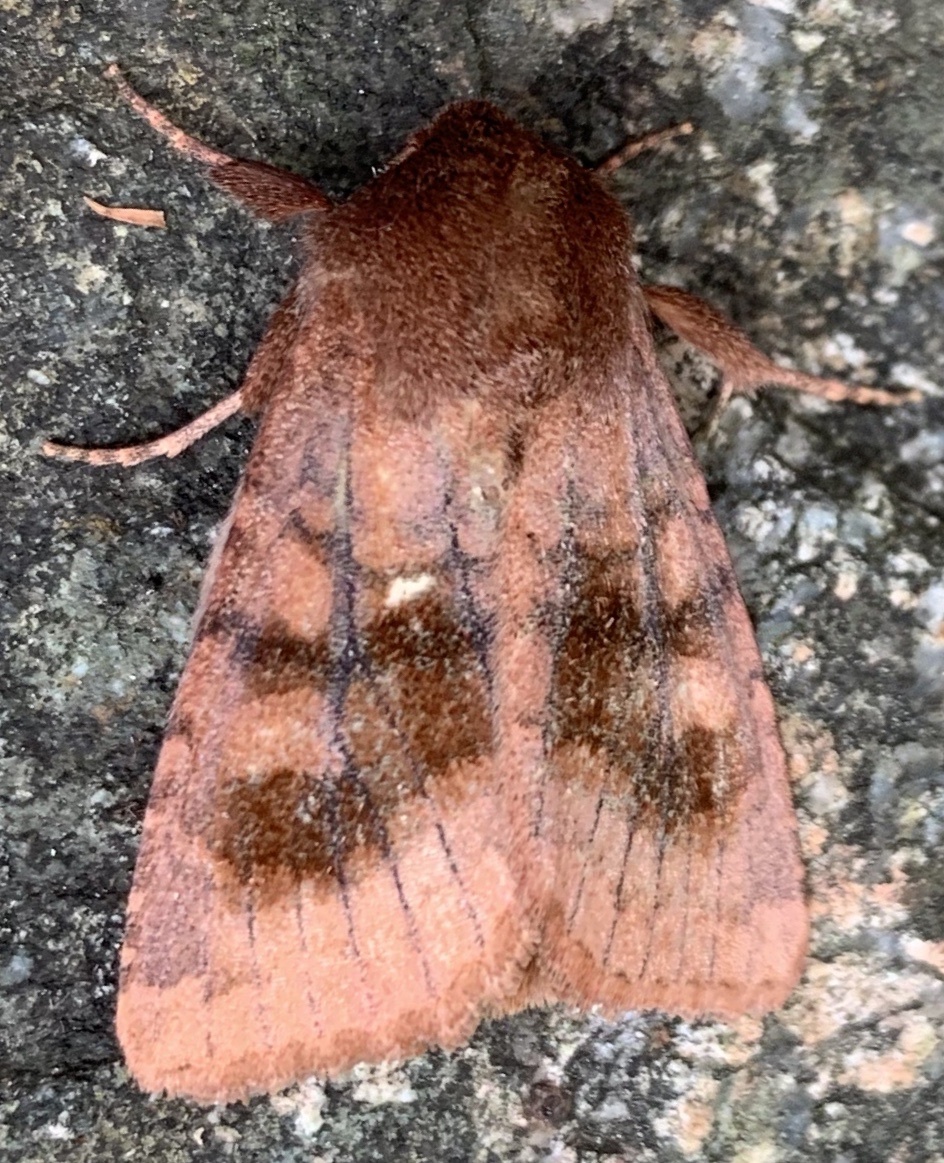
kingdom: Animalia
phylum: Arthropoda
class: Insecta
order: Lepidoptera
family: Noctuidae
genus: Nephelodes
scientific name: Nephelodes minians
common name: Bronzed cutworm
